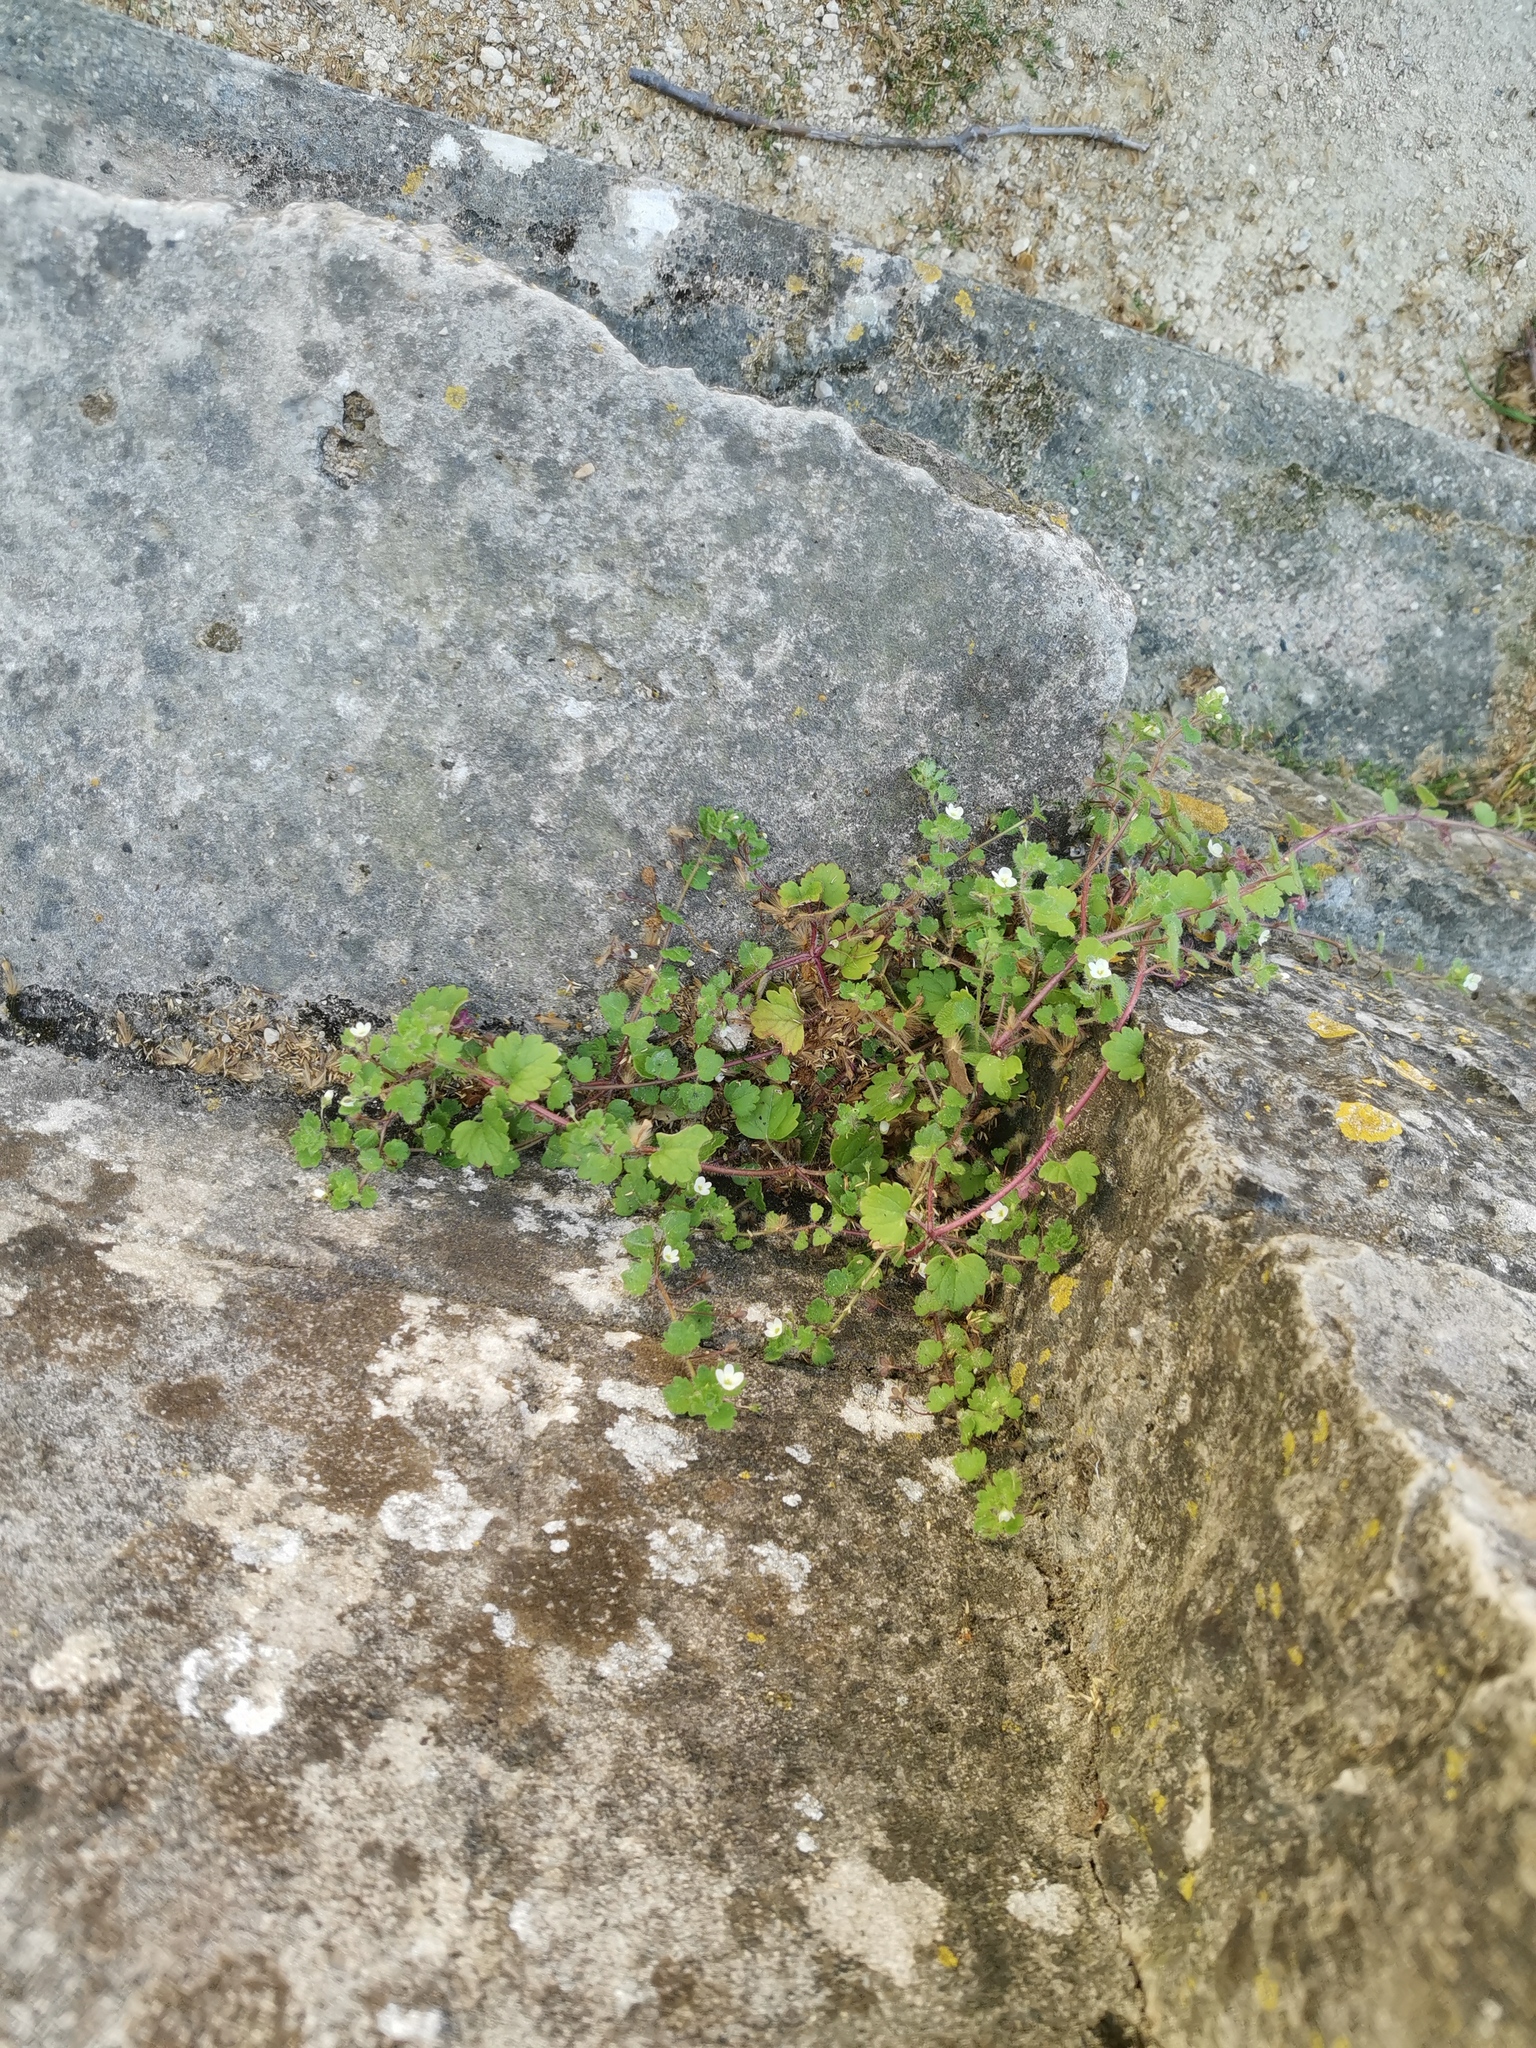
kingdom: Plantae
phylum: Tracheophyta
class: Magnoliopsida
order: Lamiales
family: Plantaginaceae
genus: Veronica
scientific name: Veronica cymbalaria
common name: Pale speedwell
